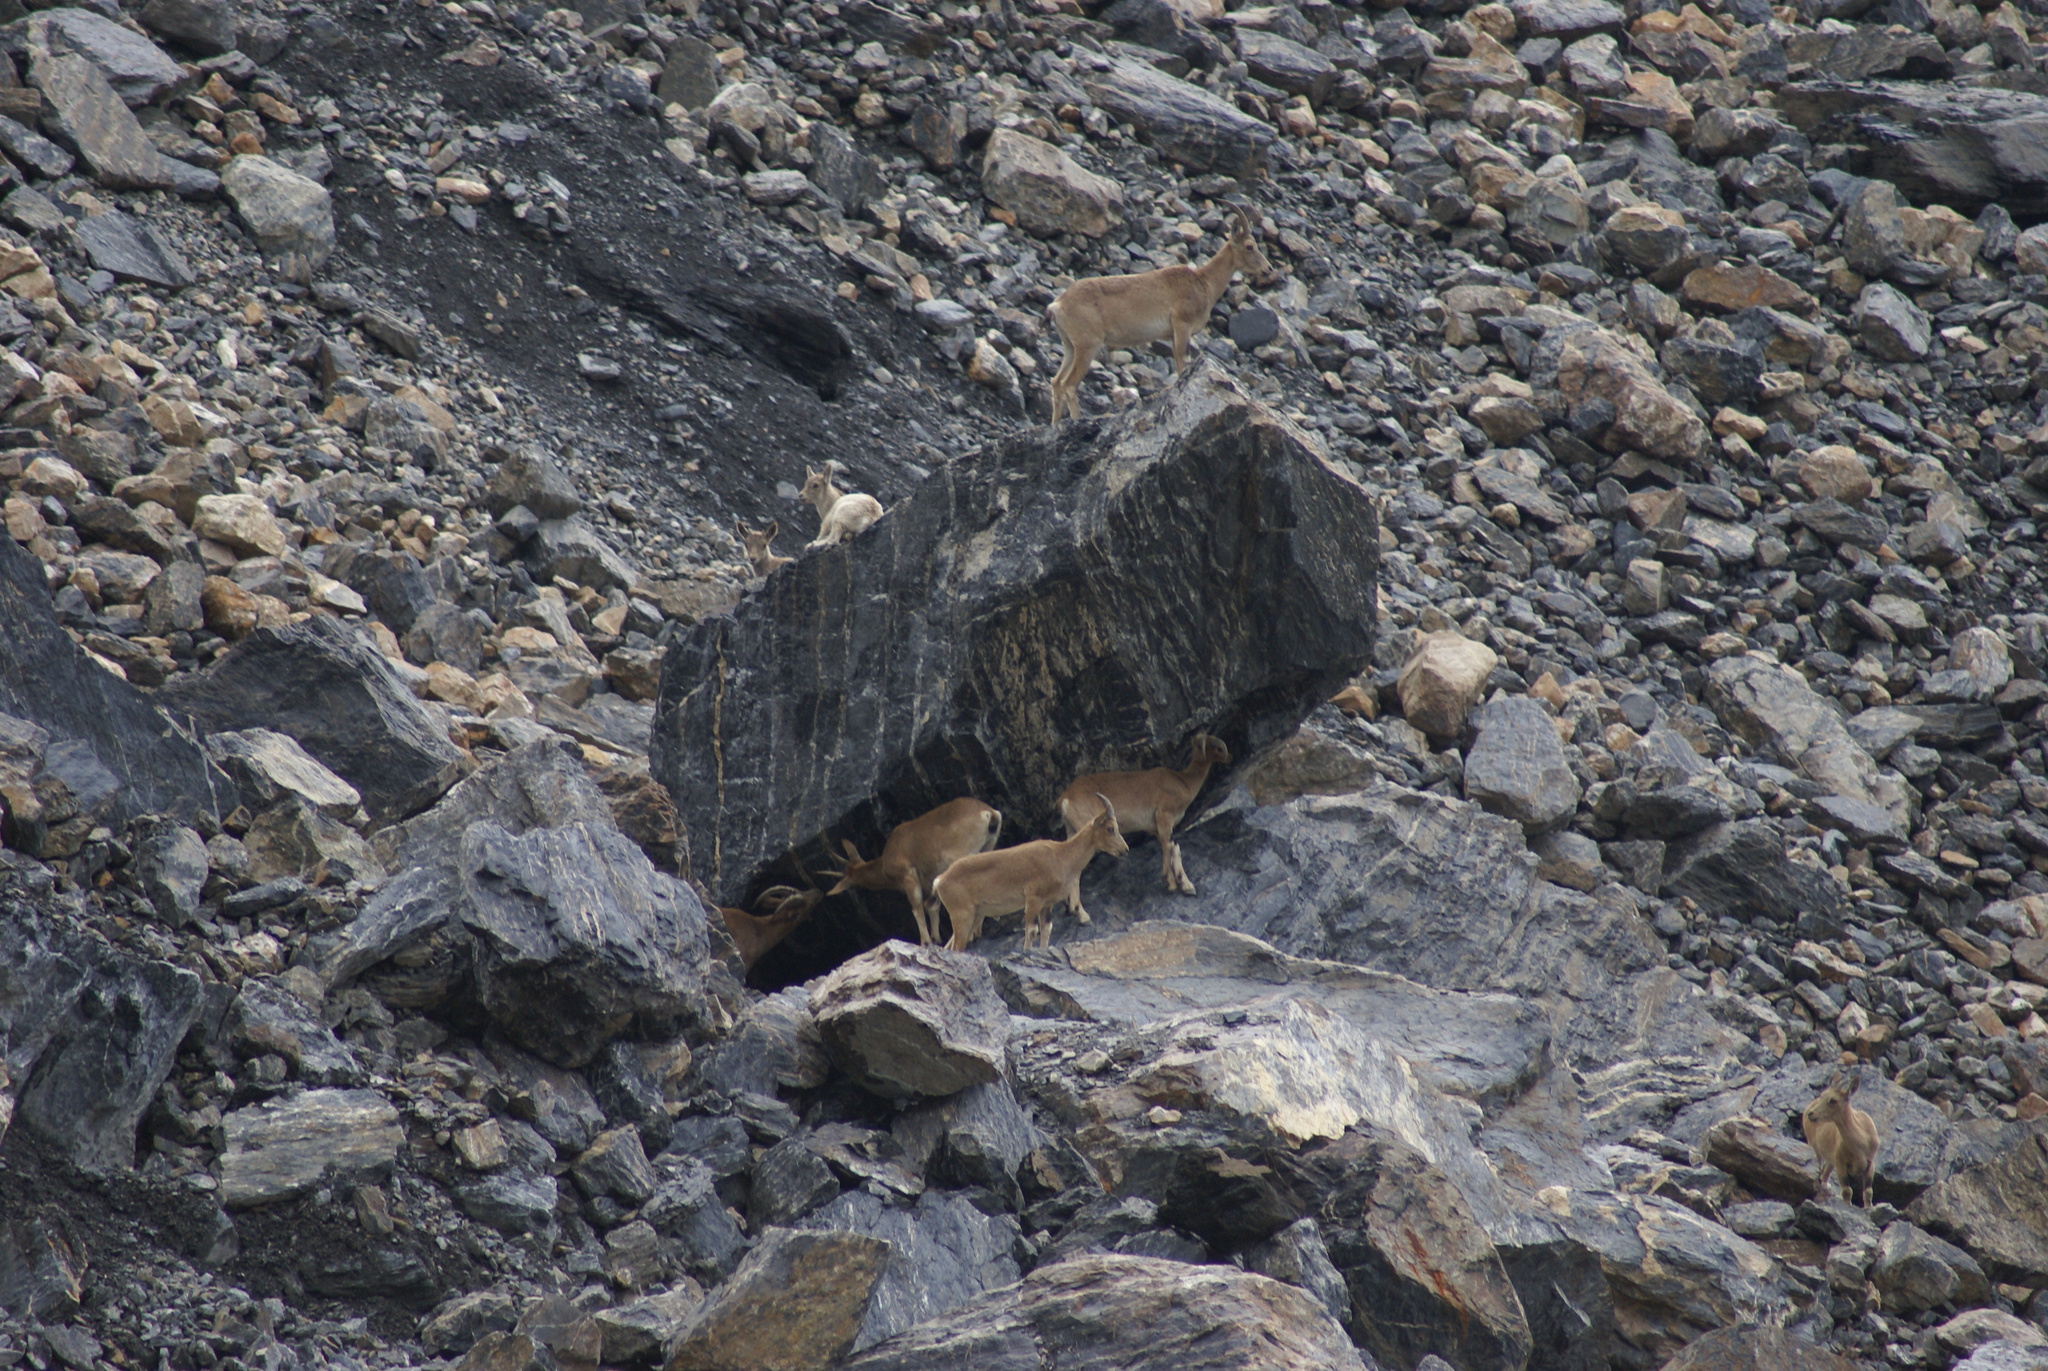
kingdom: Animalia
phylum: Chordata
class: Mammalia
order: Artiodactyla
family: Bovidae
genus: Capra
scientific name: Capra sibirica
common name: Siberian ibex
